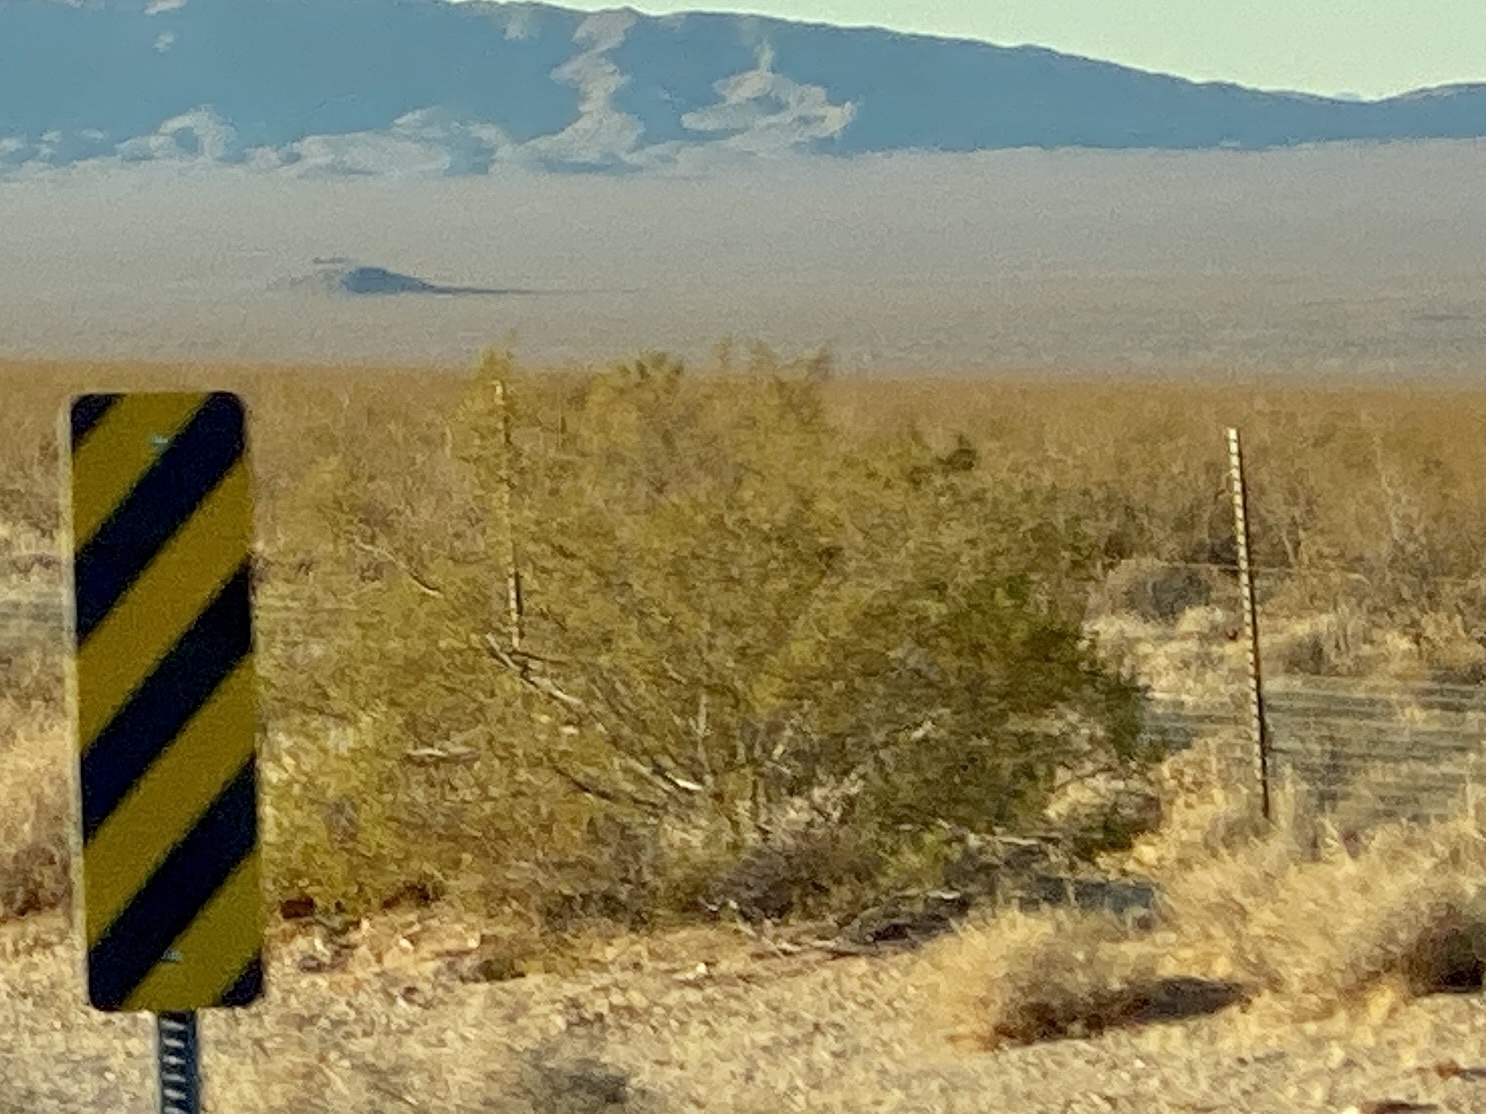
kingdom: Plantae
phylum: Tracheophyta
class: Magnoliopsida
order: Zygophyllales
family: Zygophyllaceae
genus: Larrea
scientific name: Larrea tridentata
